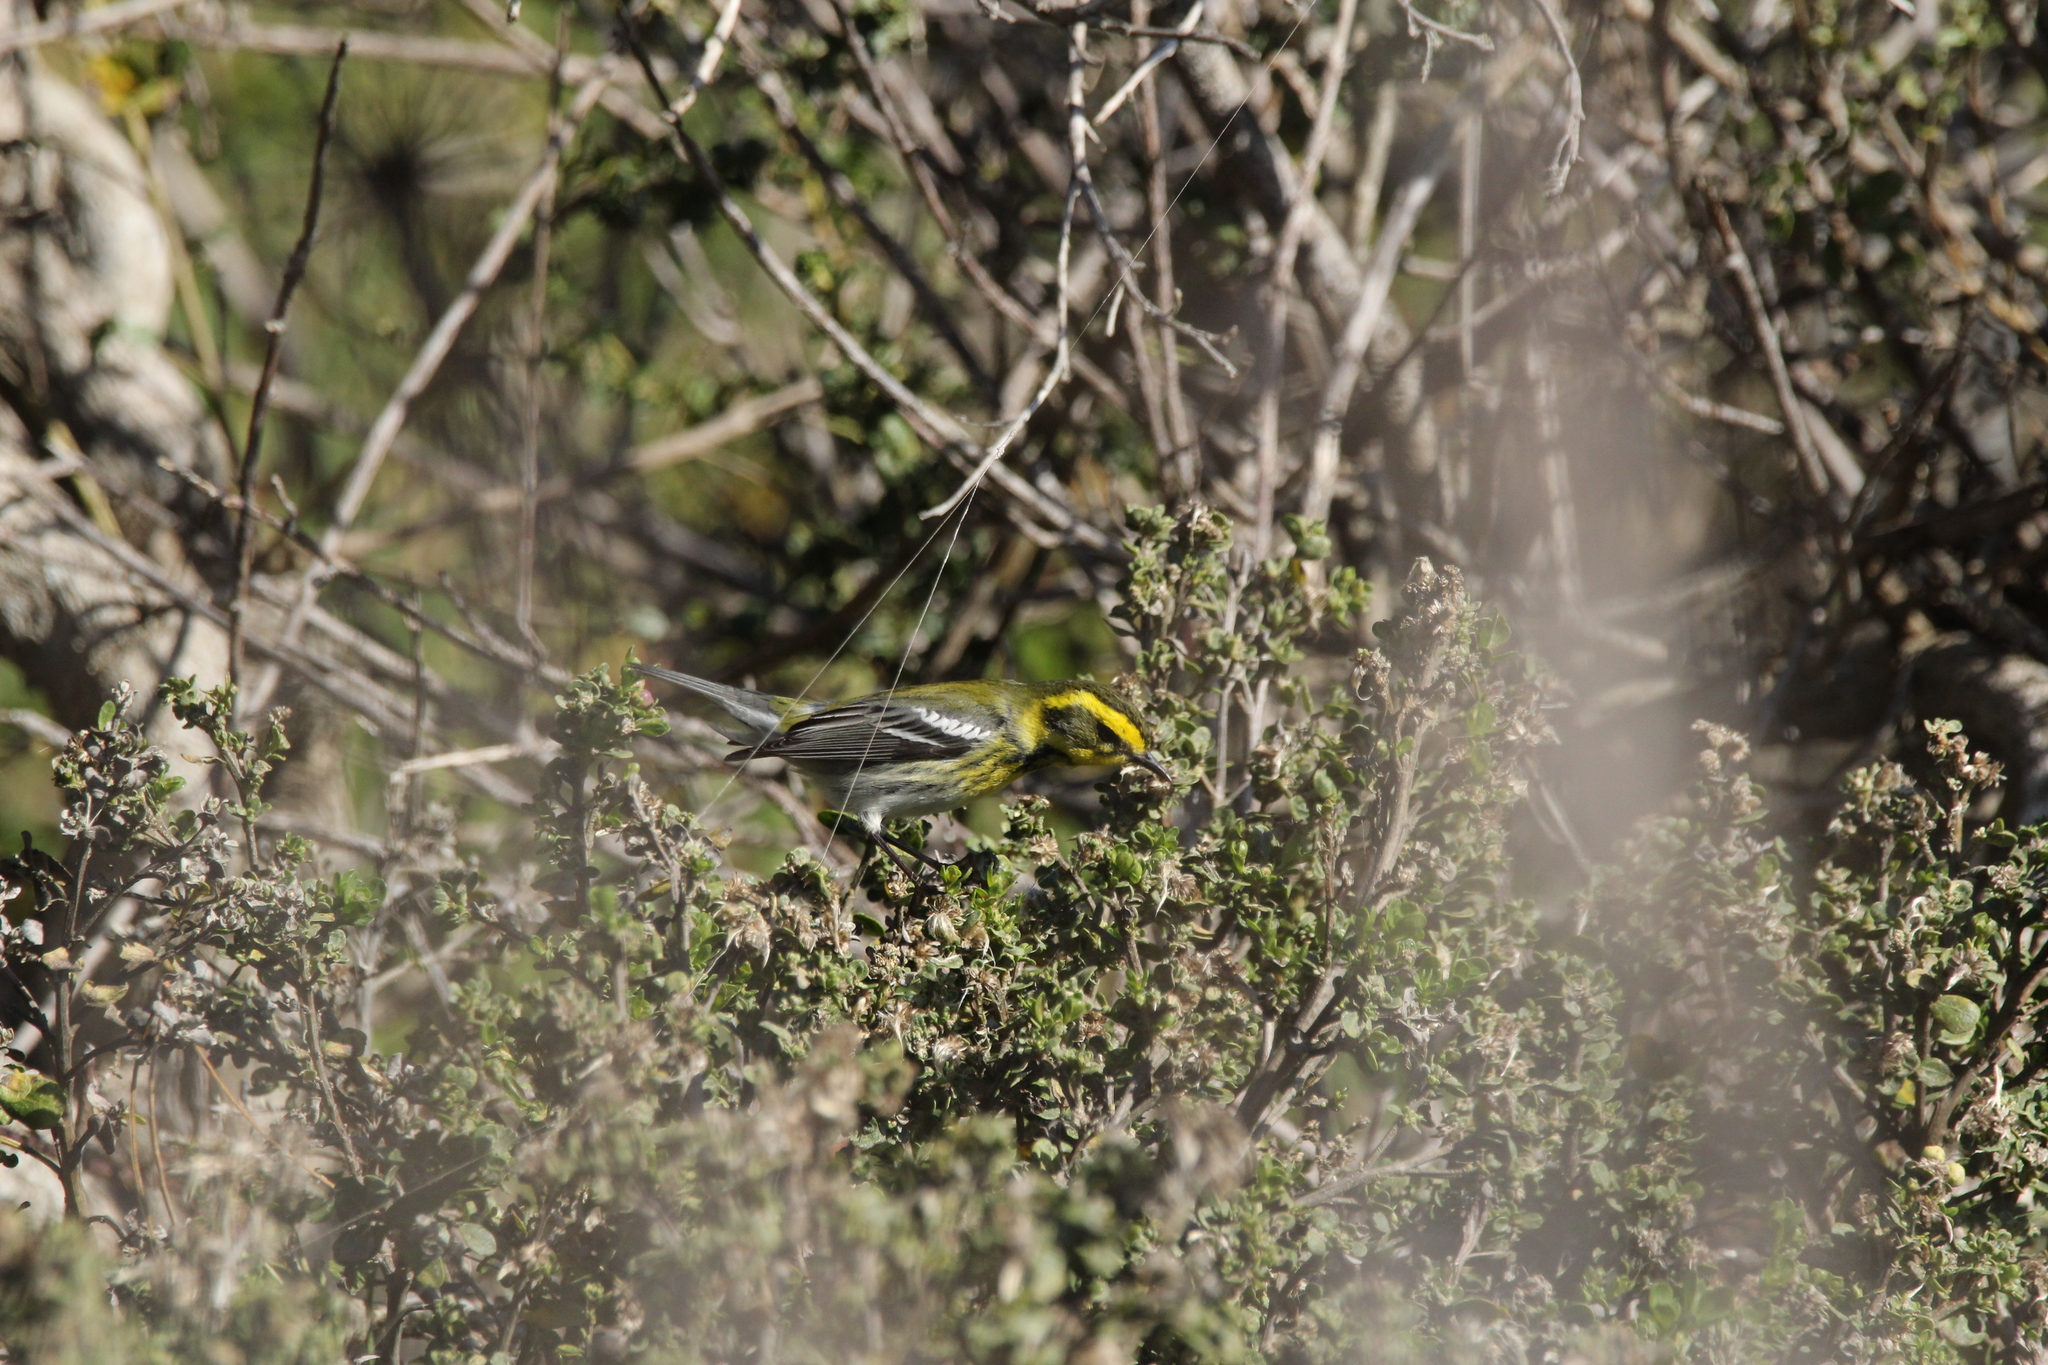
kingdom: Animalia
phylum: Chordata
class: Aves
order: Passeriformes
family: Parulidae
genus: Setophaga
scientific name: Setophaga townsendi
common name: Townsend's warbler
